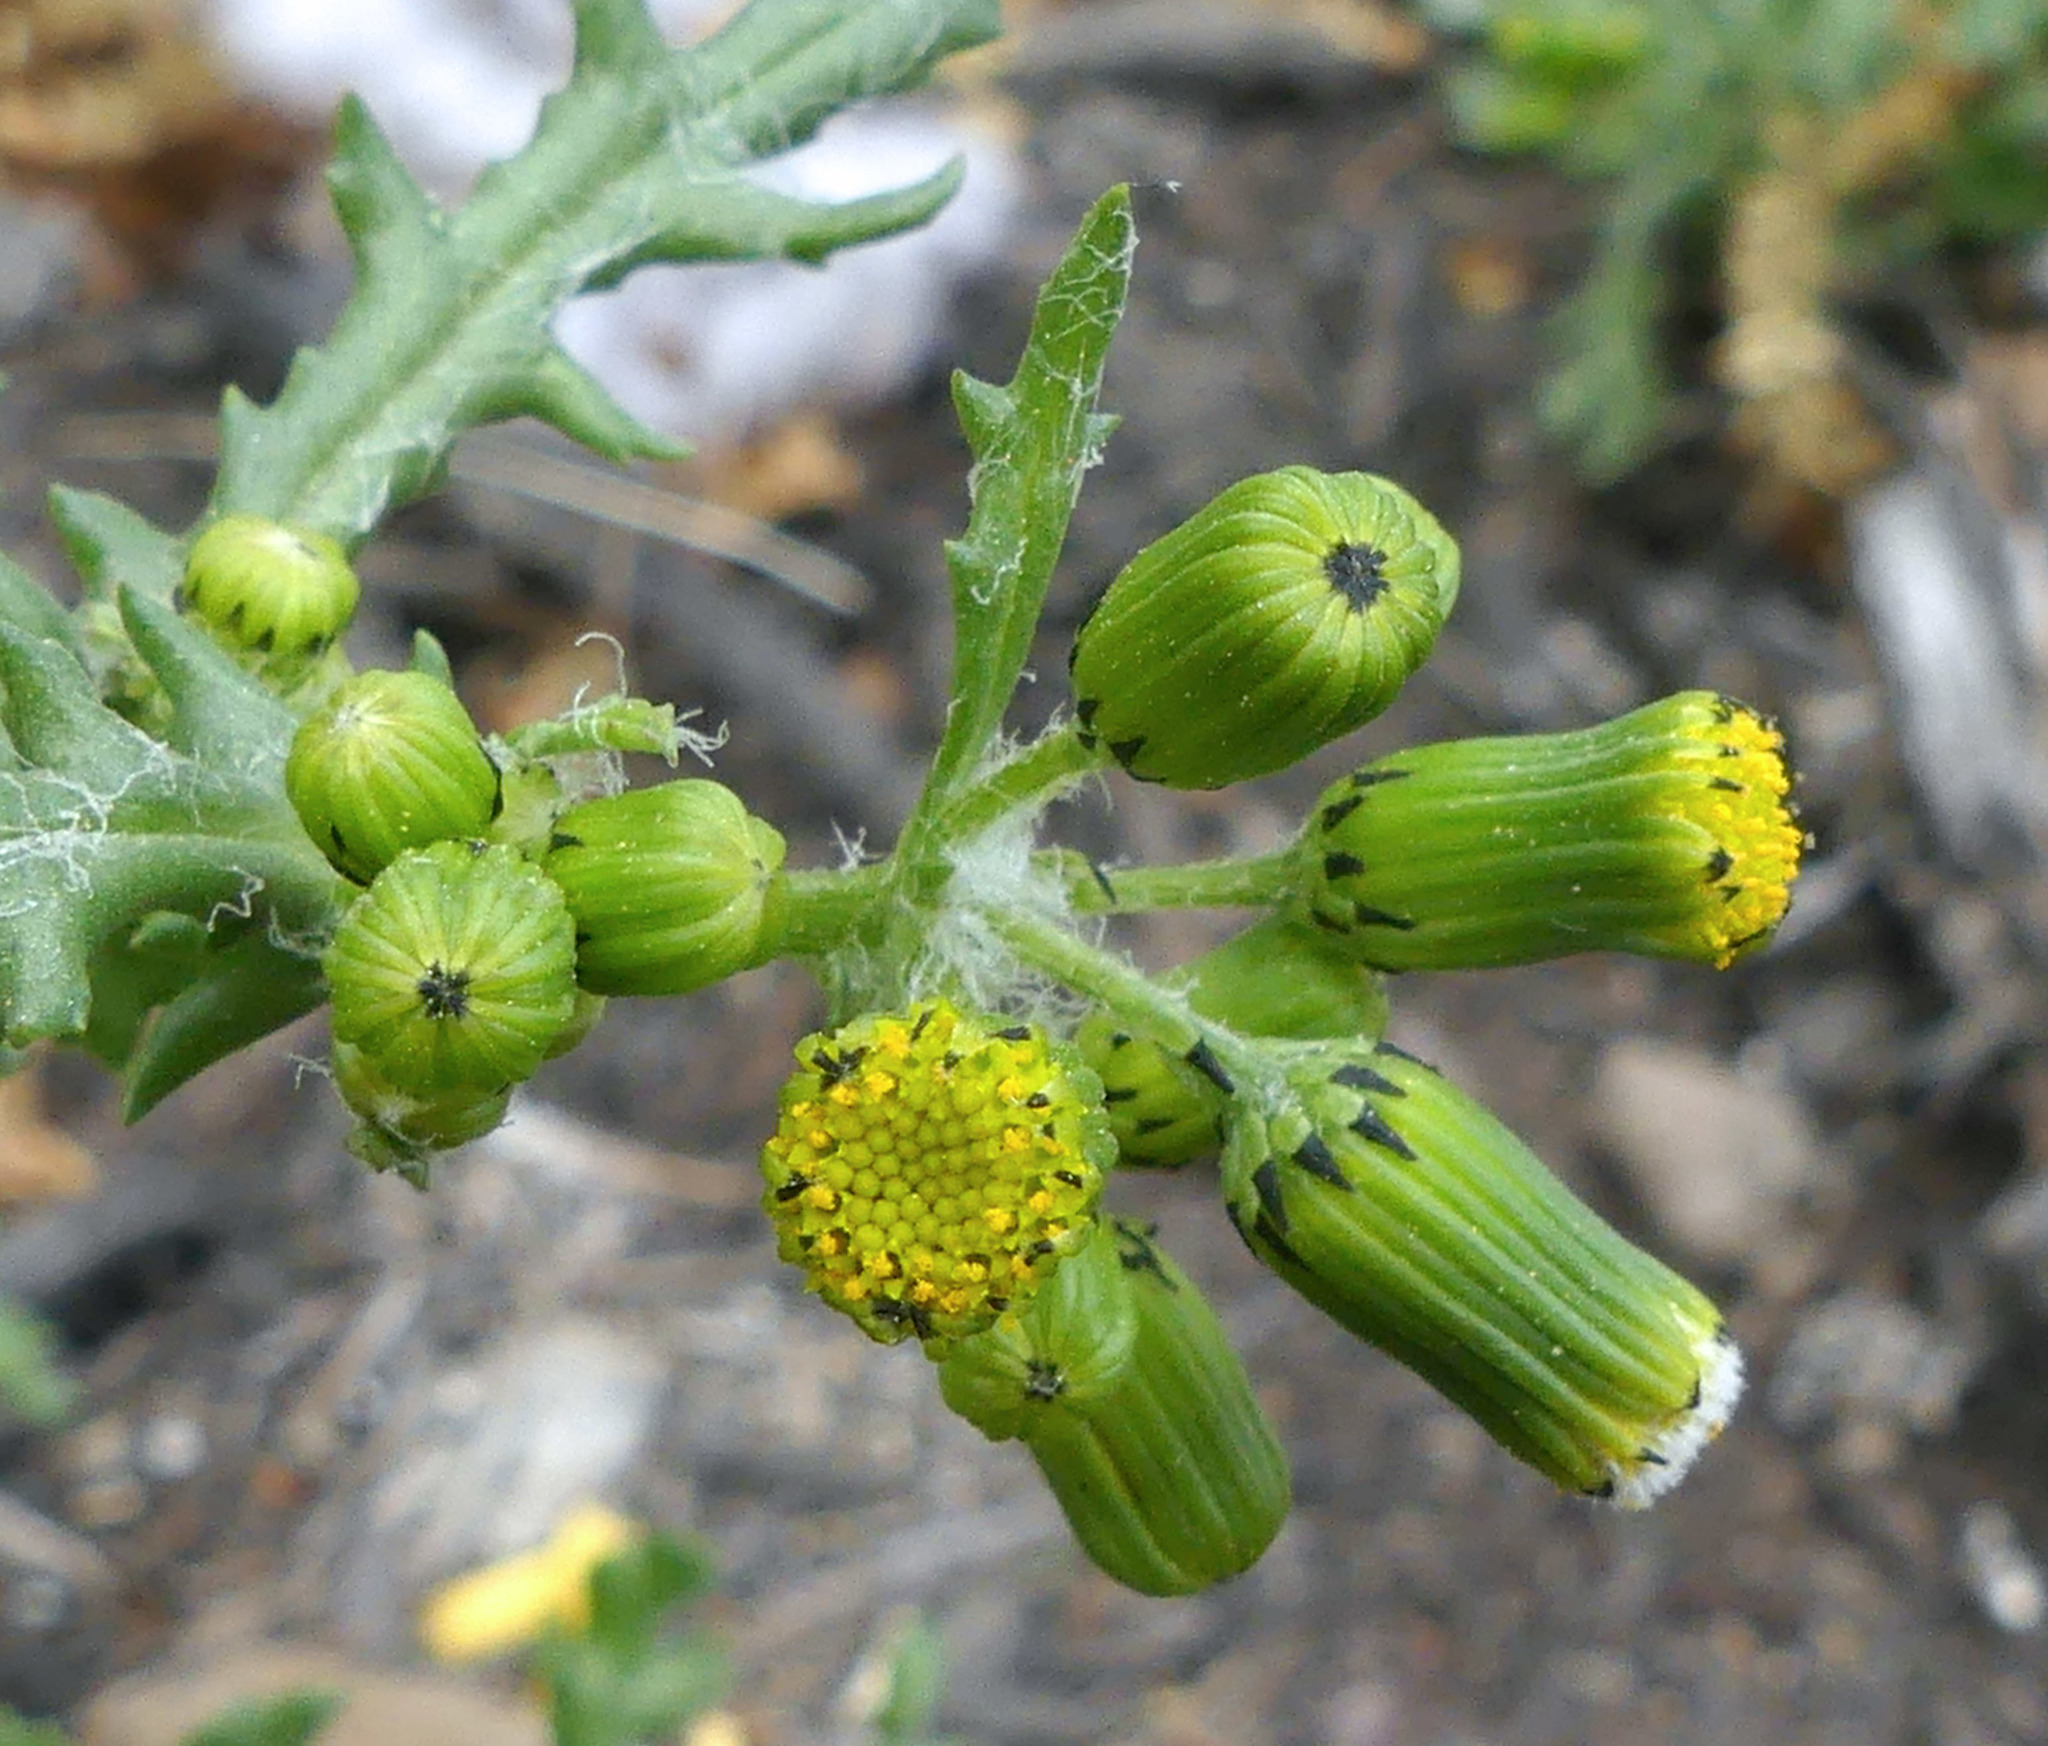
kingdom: Plantae
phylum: Tracheophyta
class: Magnoliopsida
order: Asterales
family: Asteraceae
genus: Senecio
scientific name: Senecio vulgaris
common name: Old-man-in-the-spring
